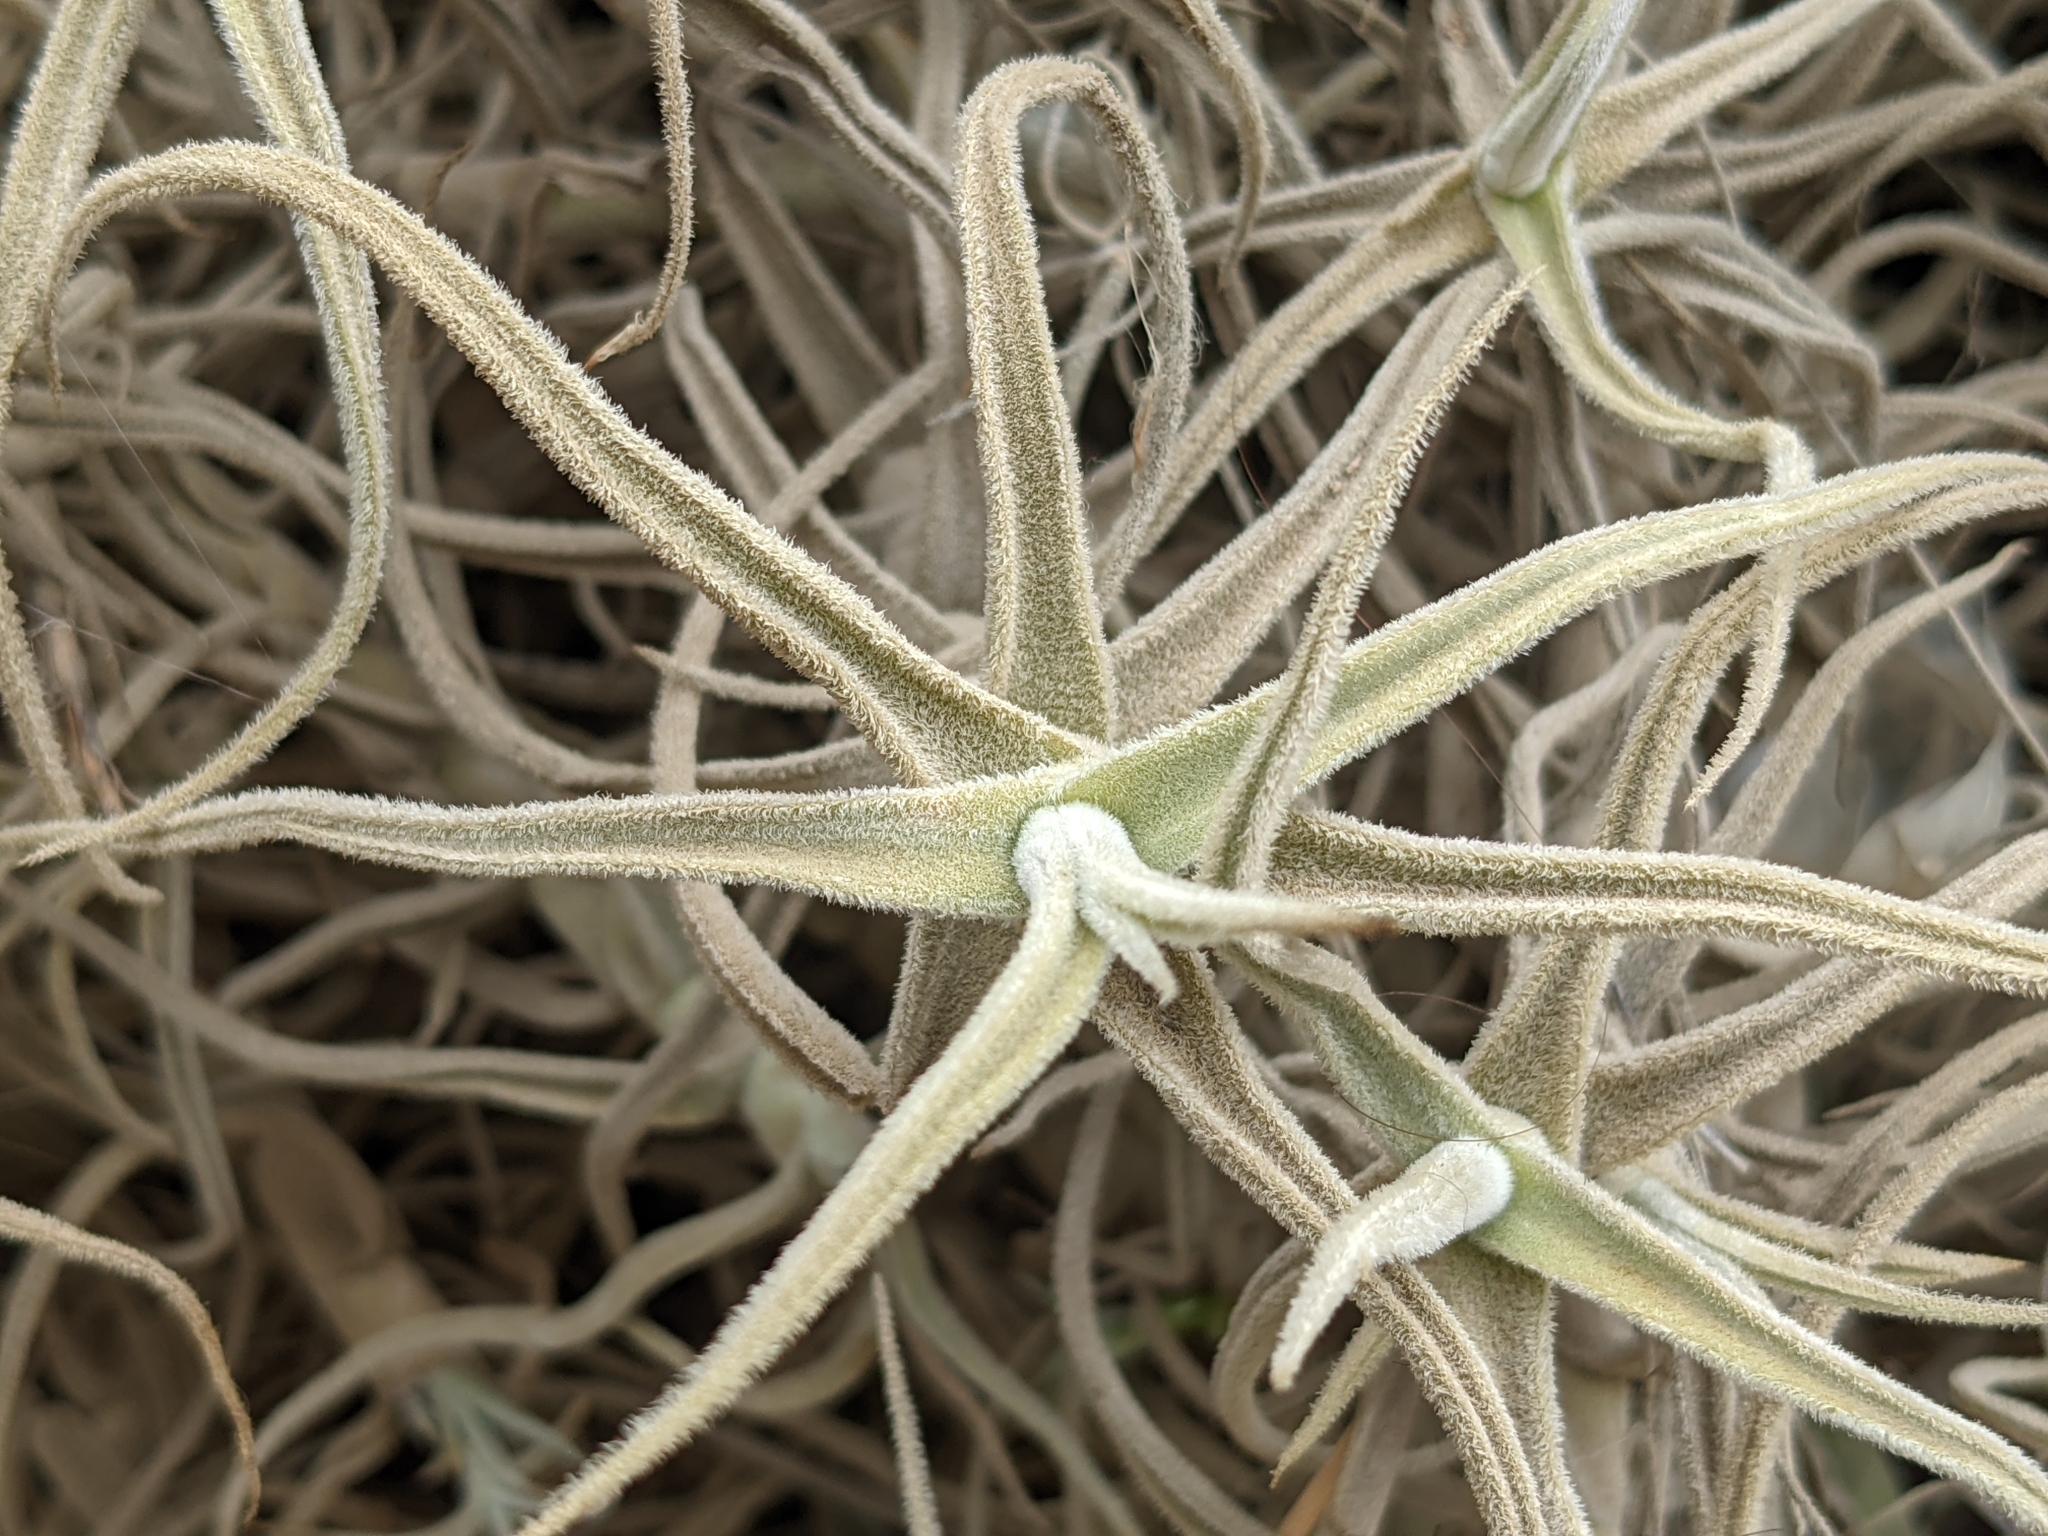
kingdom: Plantae
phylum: Tracheophyta
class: Liliopsida
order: Poales
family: Bromeliaceae
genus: Tillandsia
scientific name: Tillandsia paleacea
